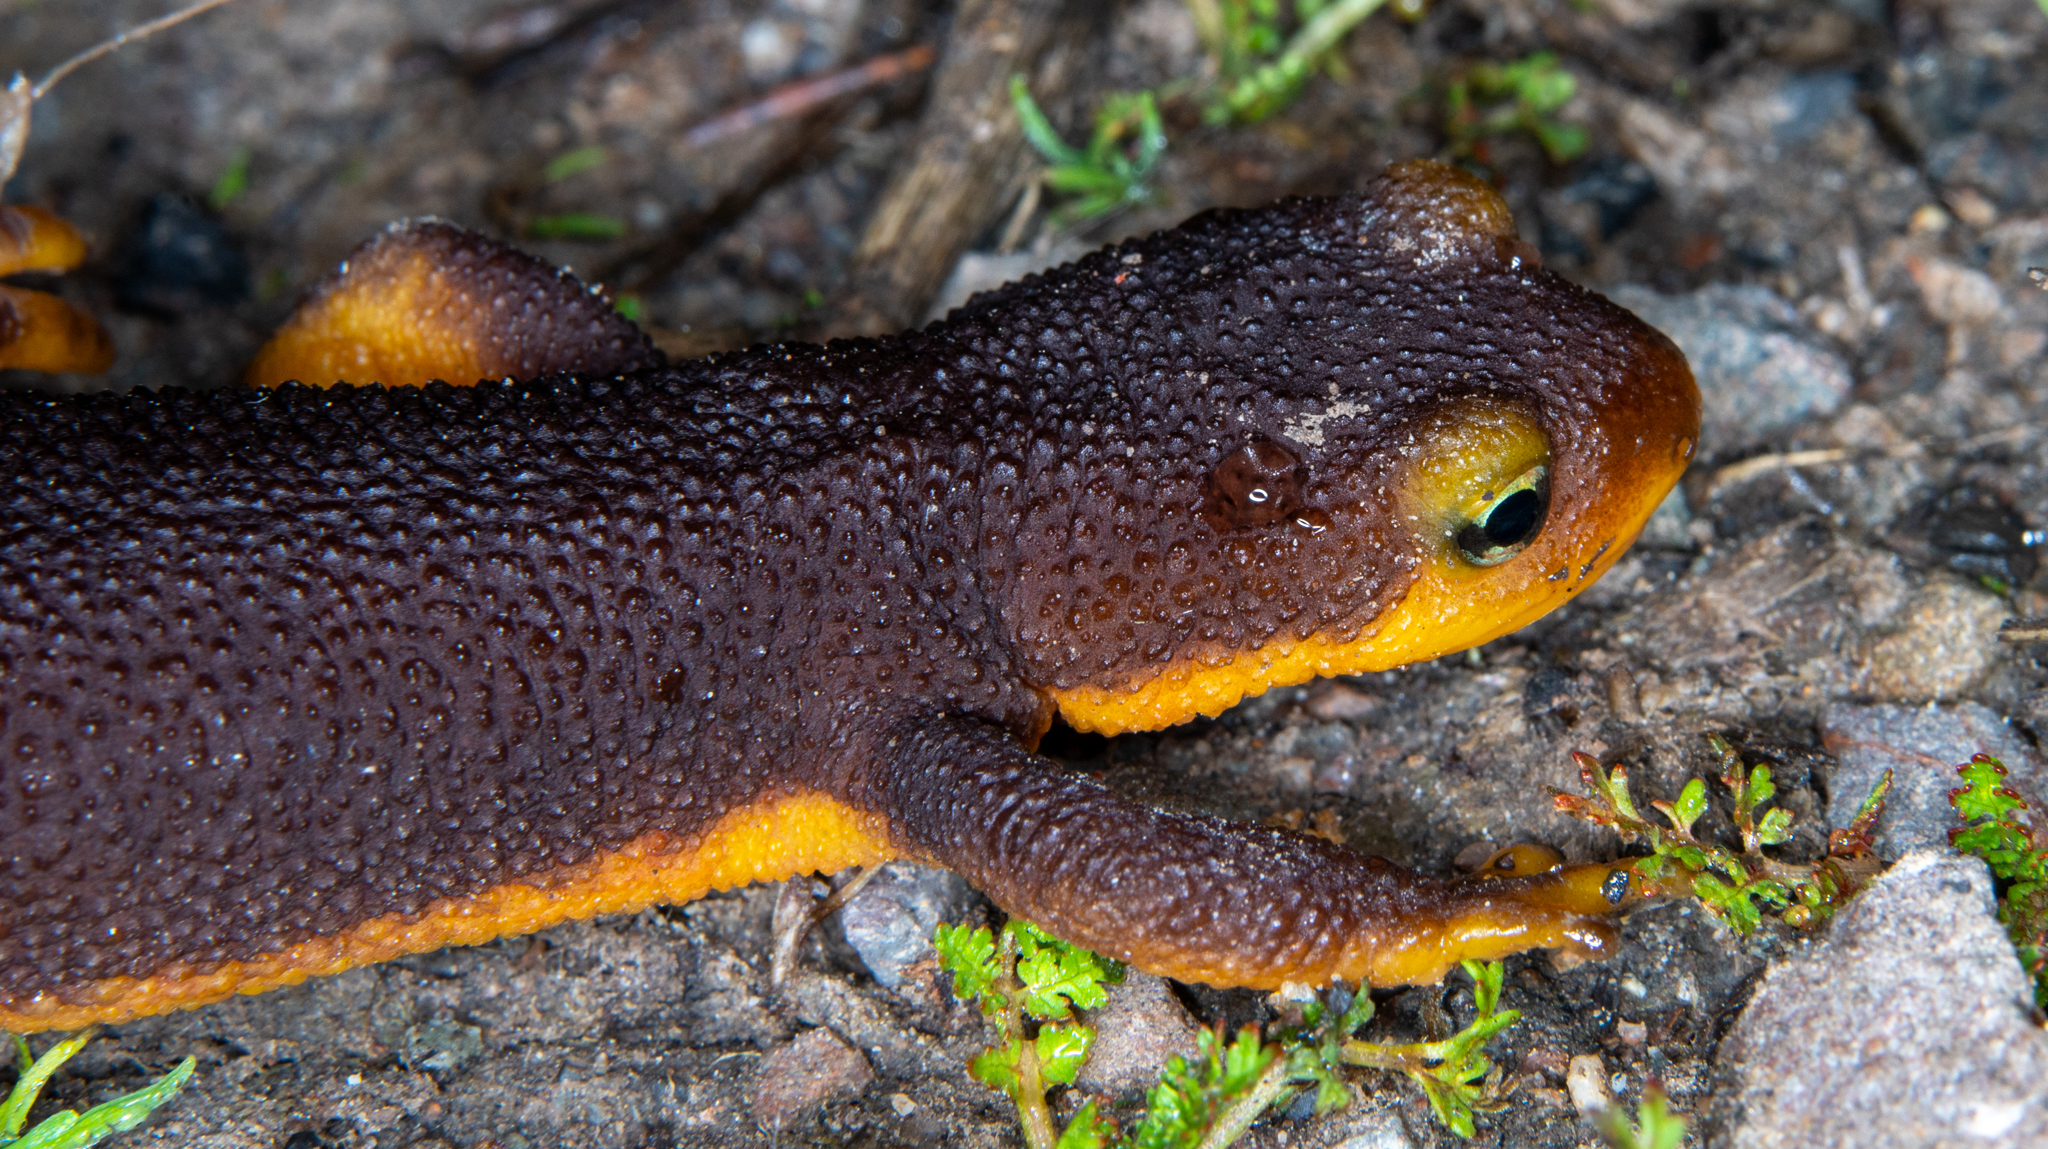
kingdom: Animalia
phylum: Chordata
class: Amphibia
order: Caudata
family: Salamandridae
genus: Taricha
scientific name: Taricha torosa
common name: California newt
